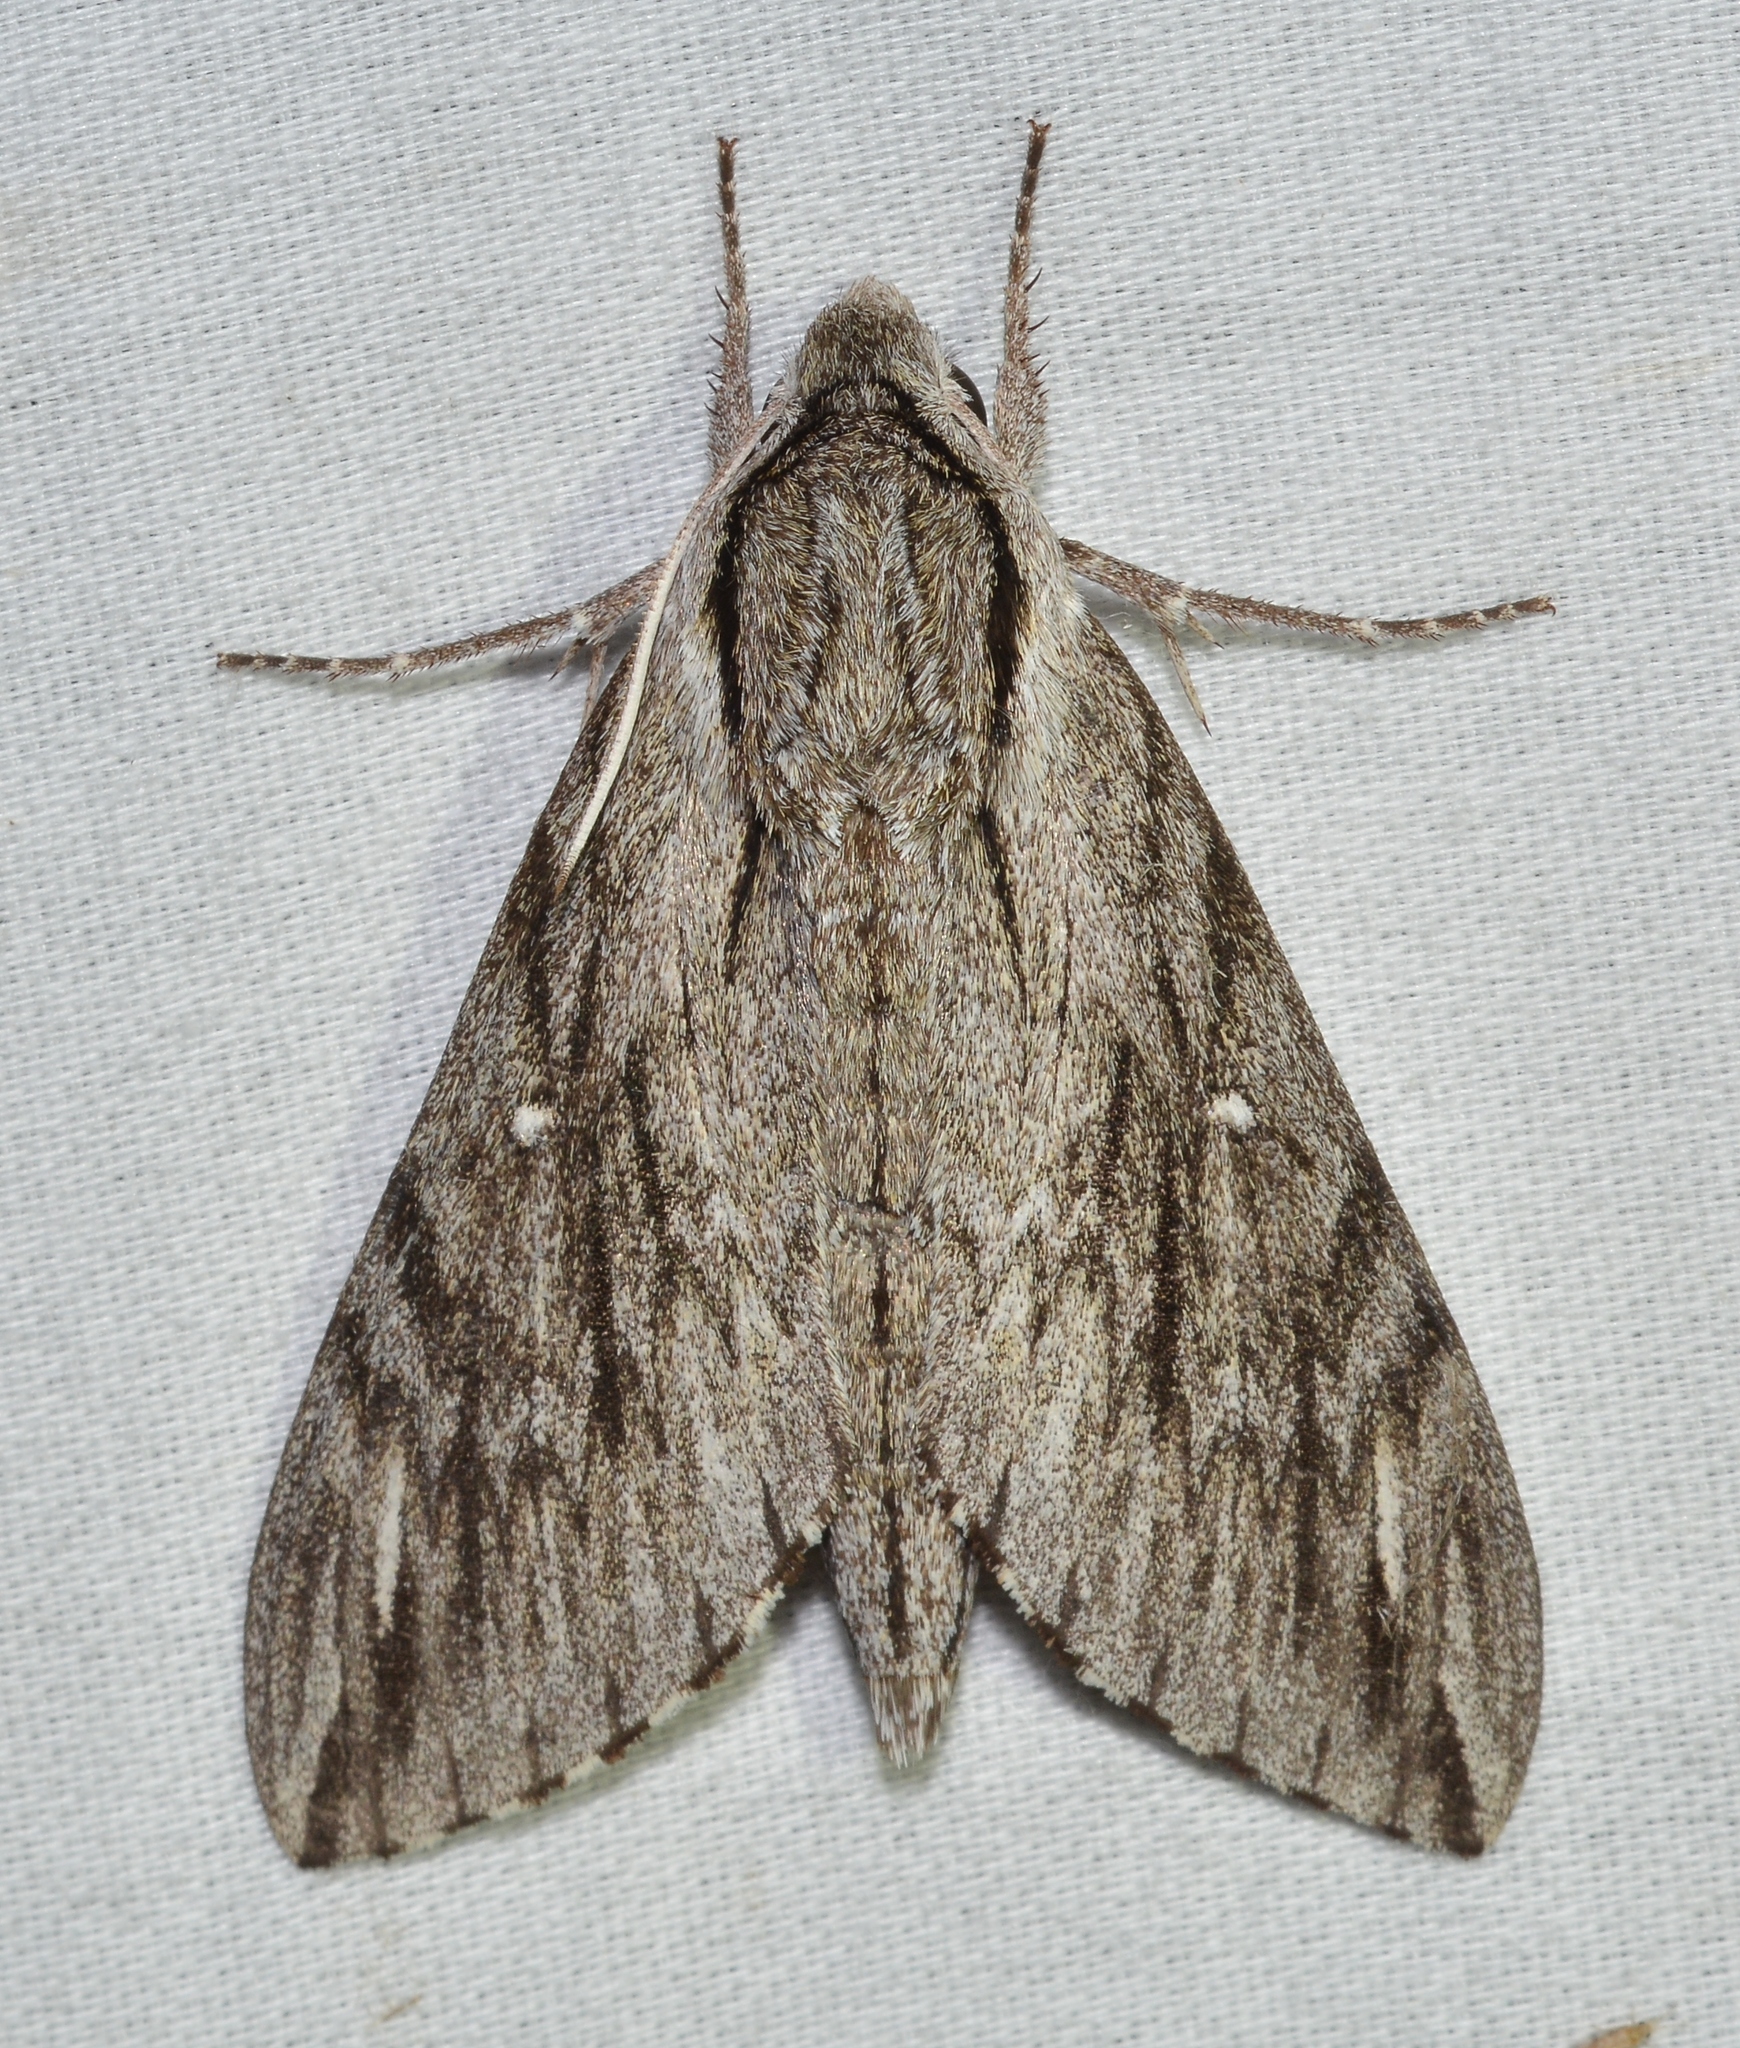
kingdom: Animalia
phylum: Arthropoda
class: Insecta
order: Lepidoptera
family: Sphingidae
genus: Paratrea
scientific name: Paratrea plebeja
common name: Plebian sphinx
